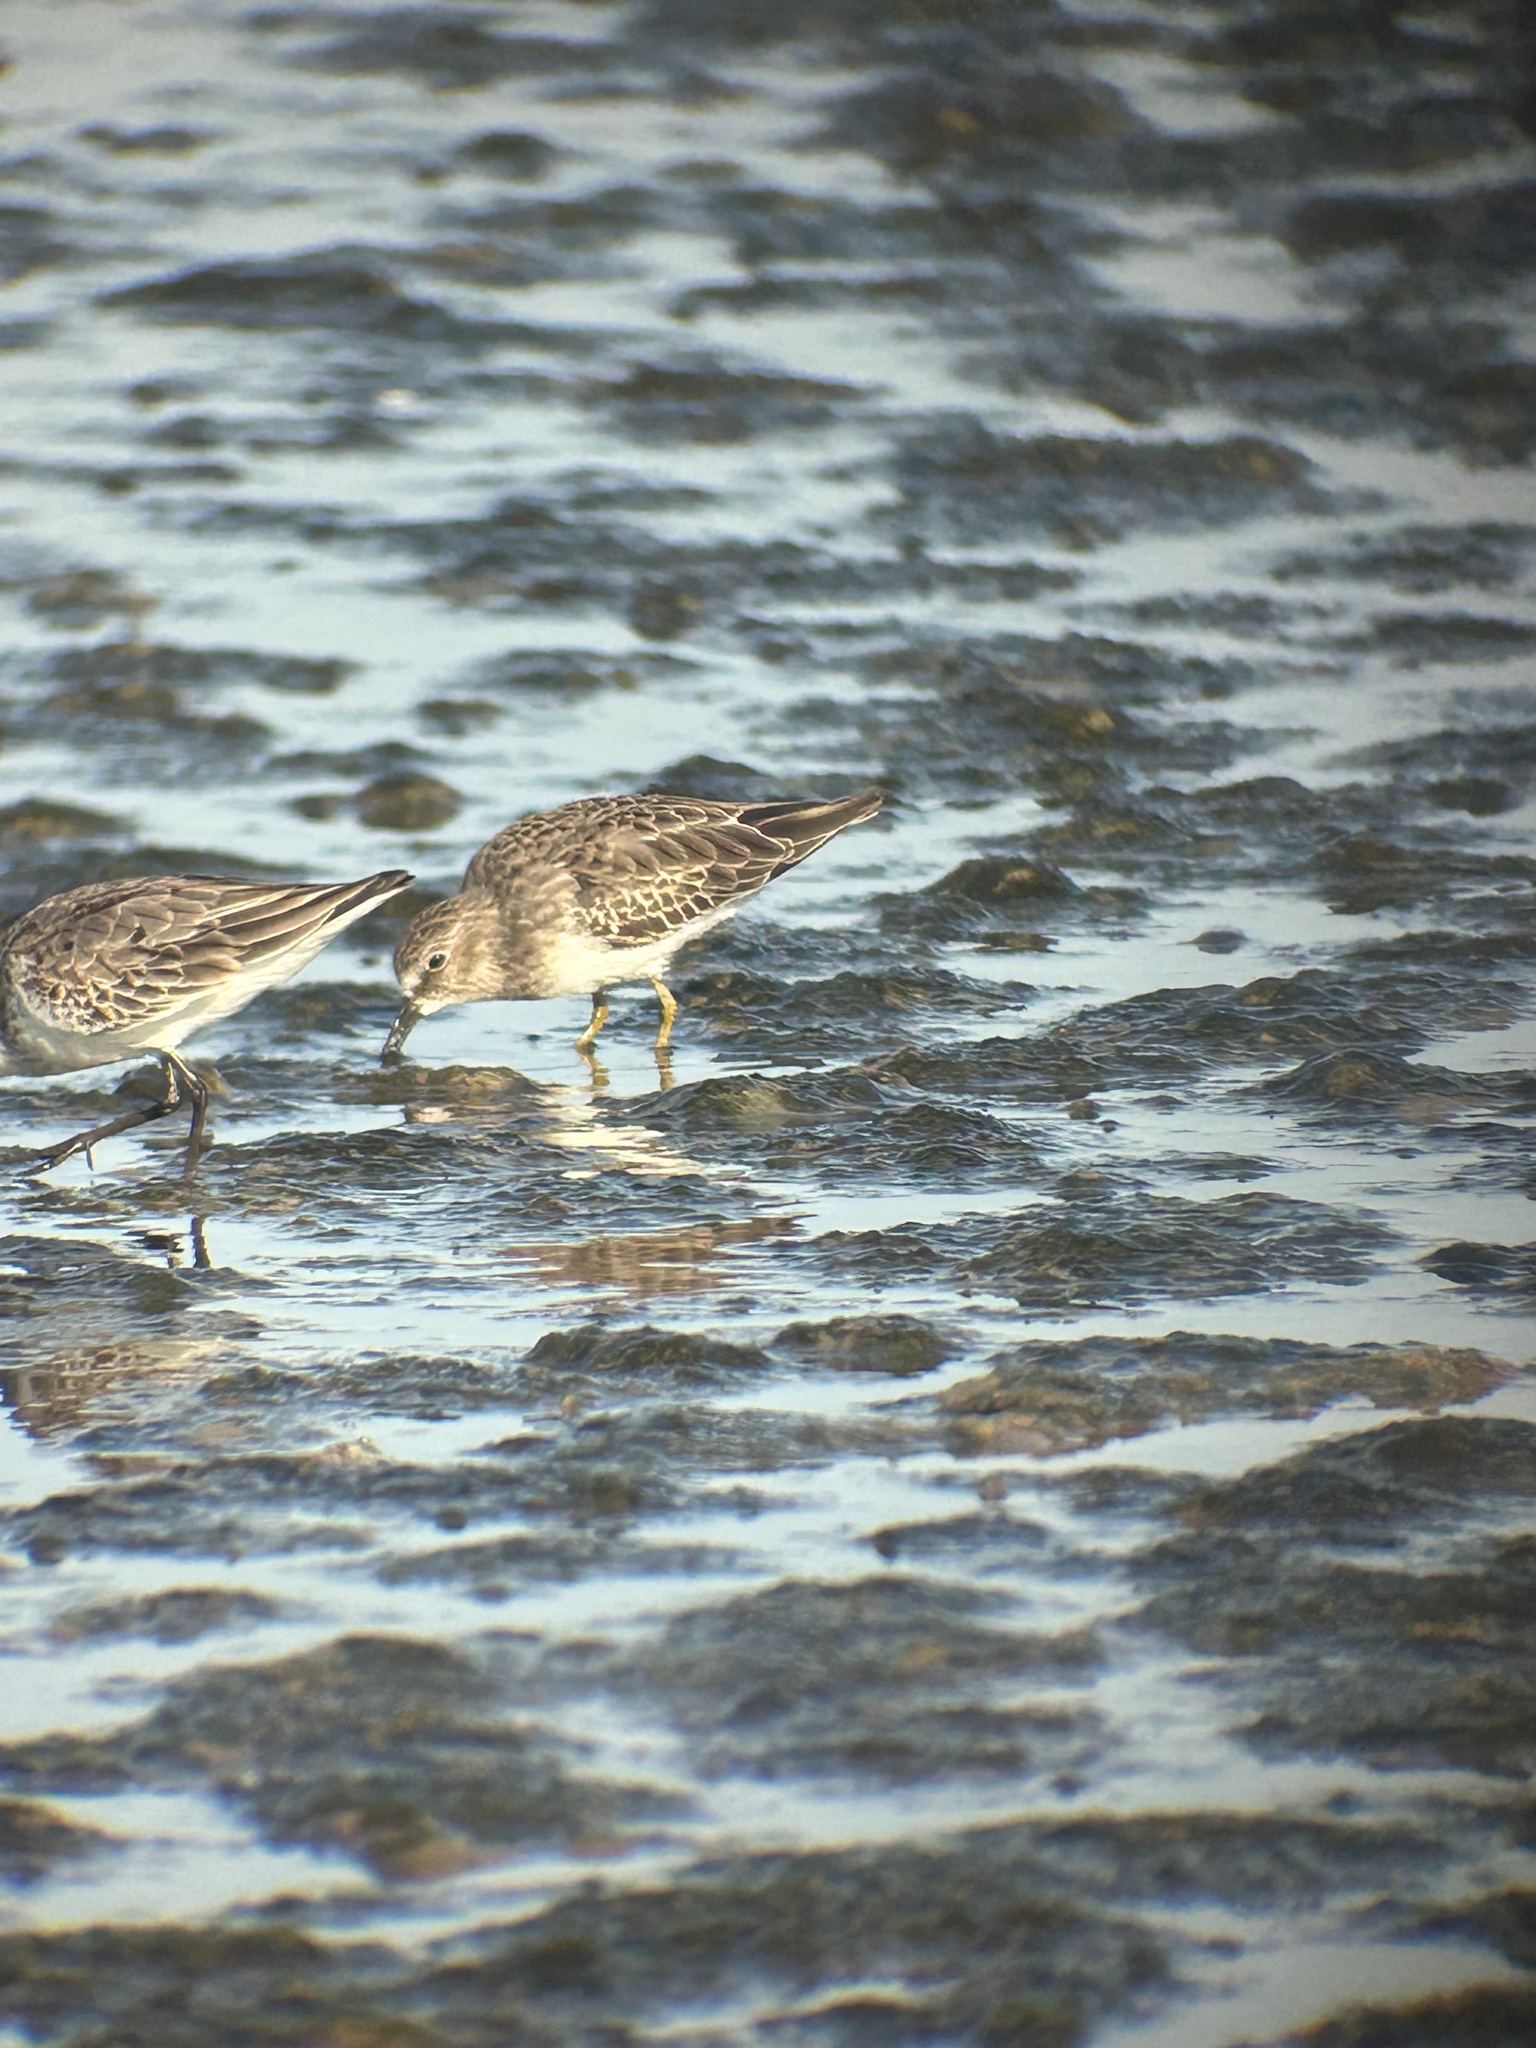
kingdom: Animalia
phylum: Chordata
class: Aves
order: Charadriiformes
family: Scolopacidae
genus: Calidris
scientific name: Calidris minutilla
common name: Least sandpiper
